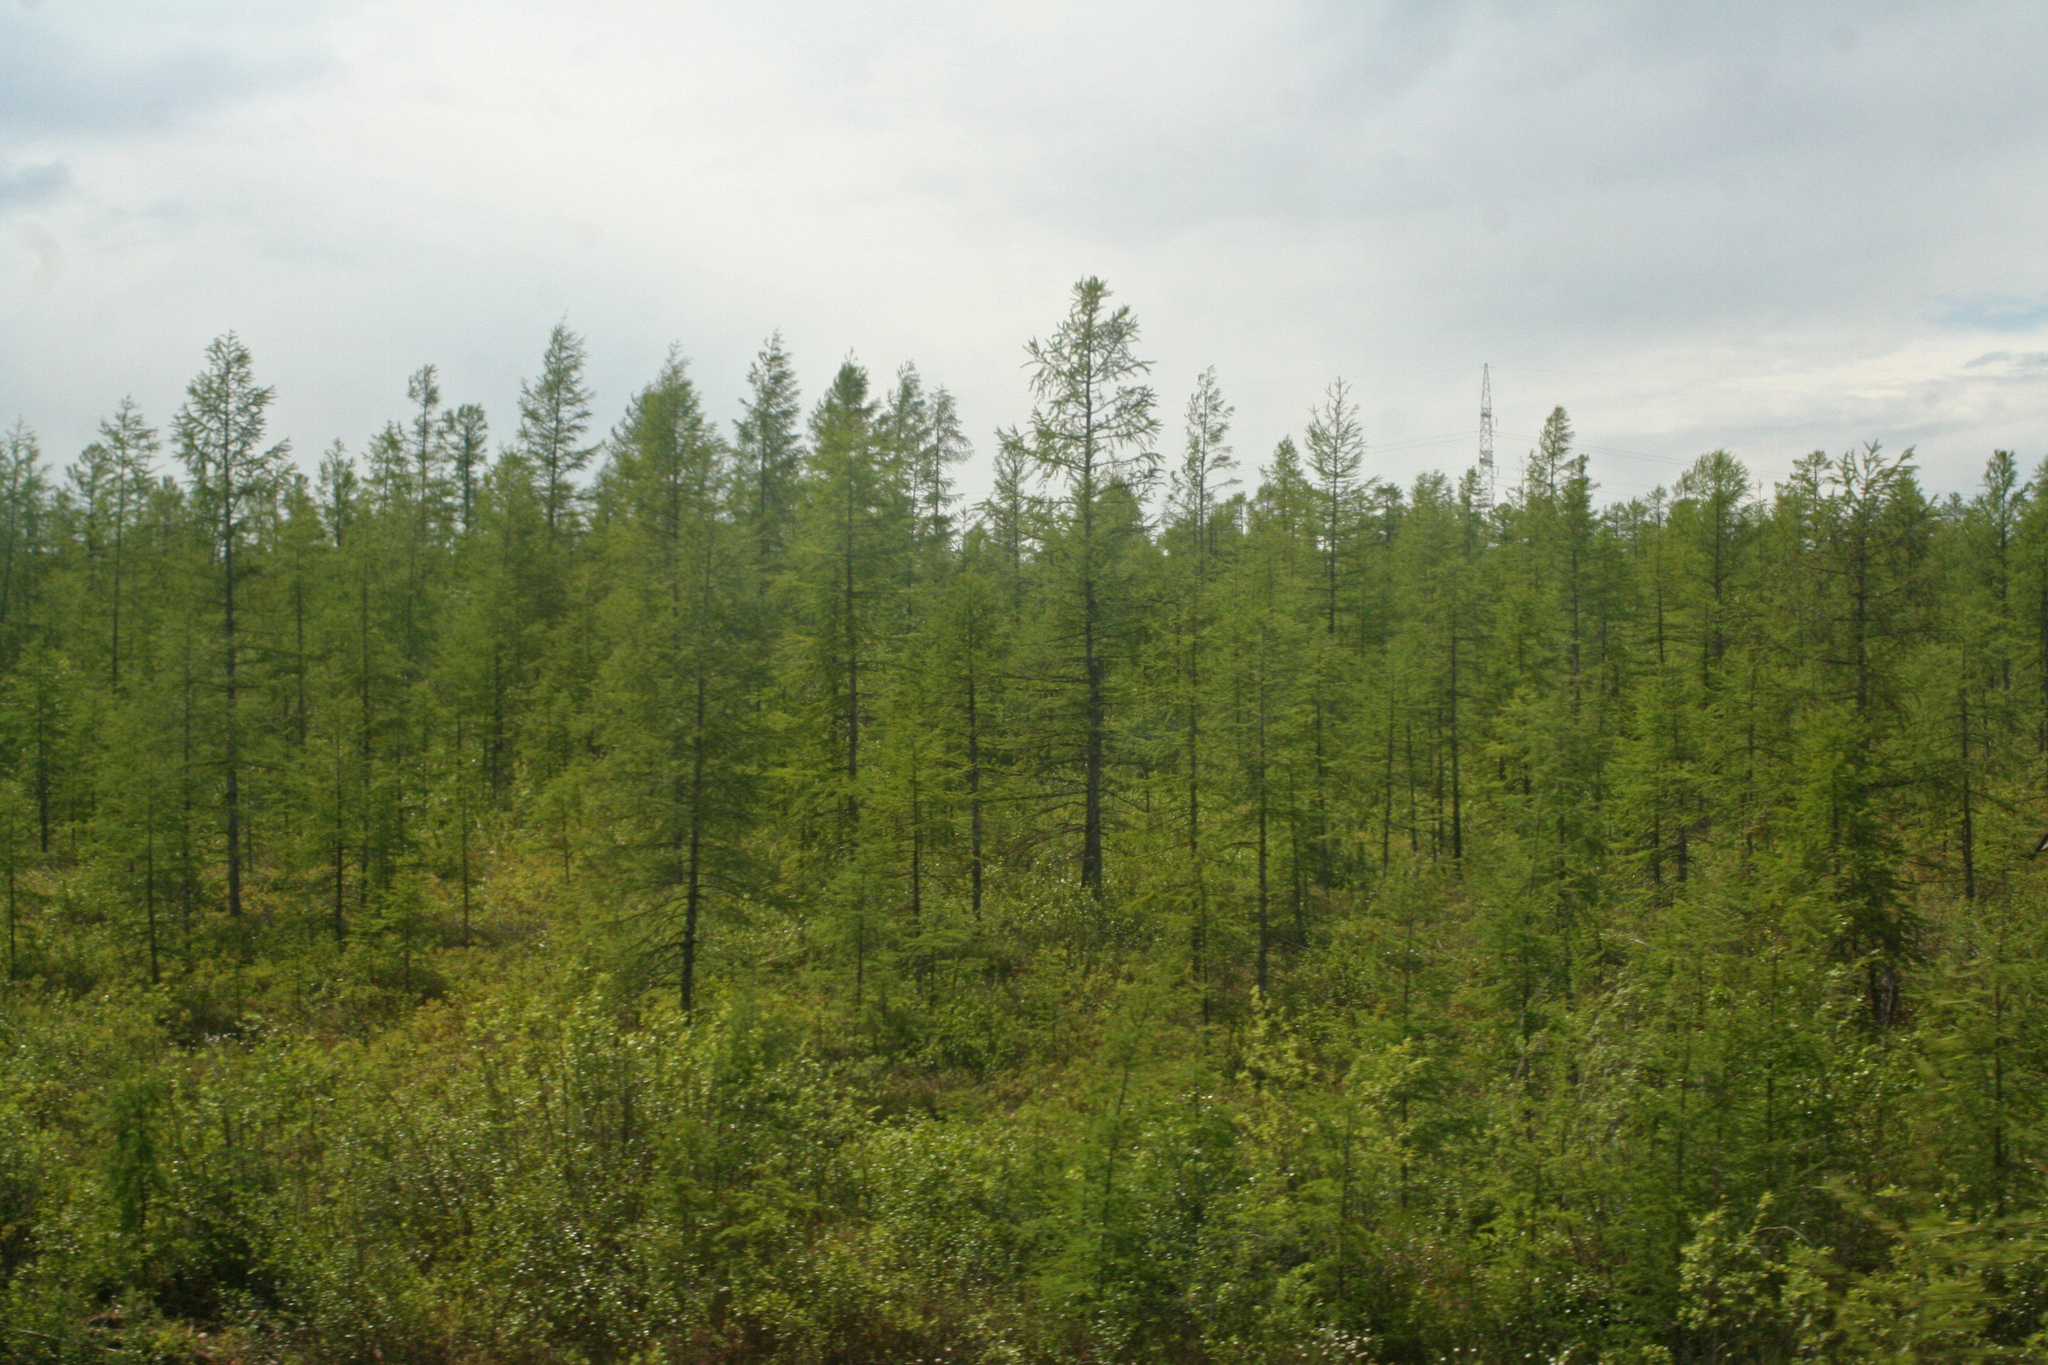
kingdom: Plantae
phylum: Tracheophyta
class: Pinopsida
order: Pinales
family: Pinaceae
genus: Larix
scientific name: Larix gmelinii
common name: Dahurian larch
